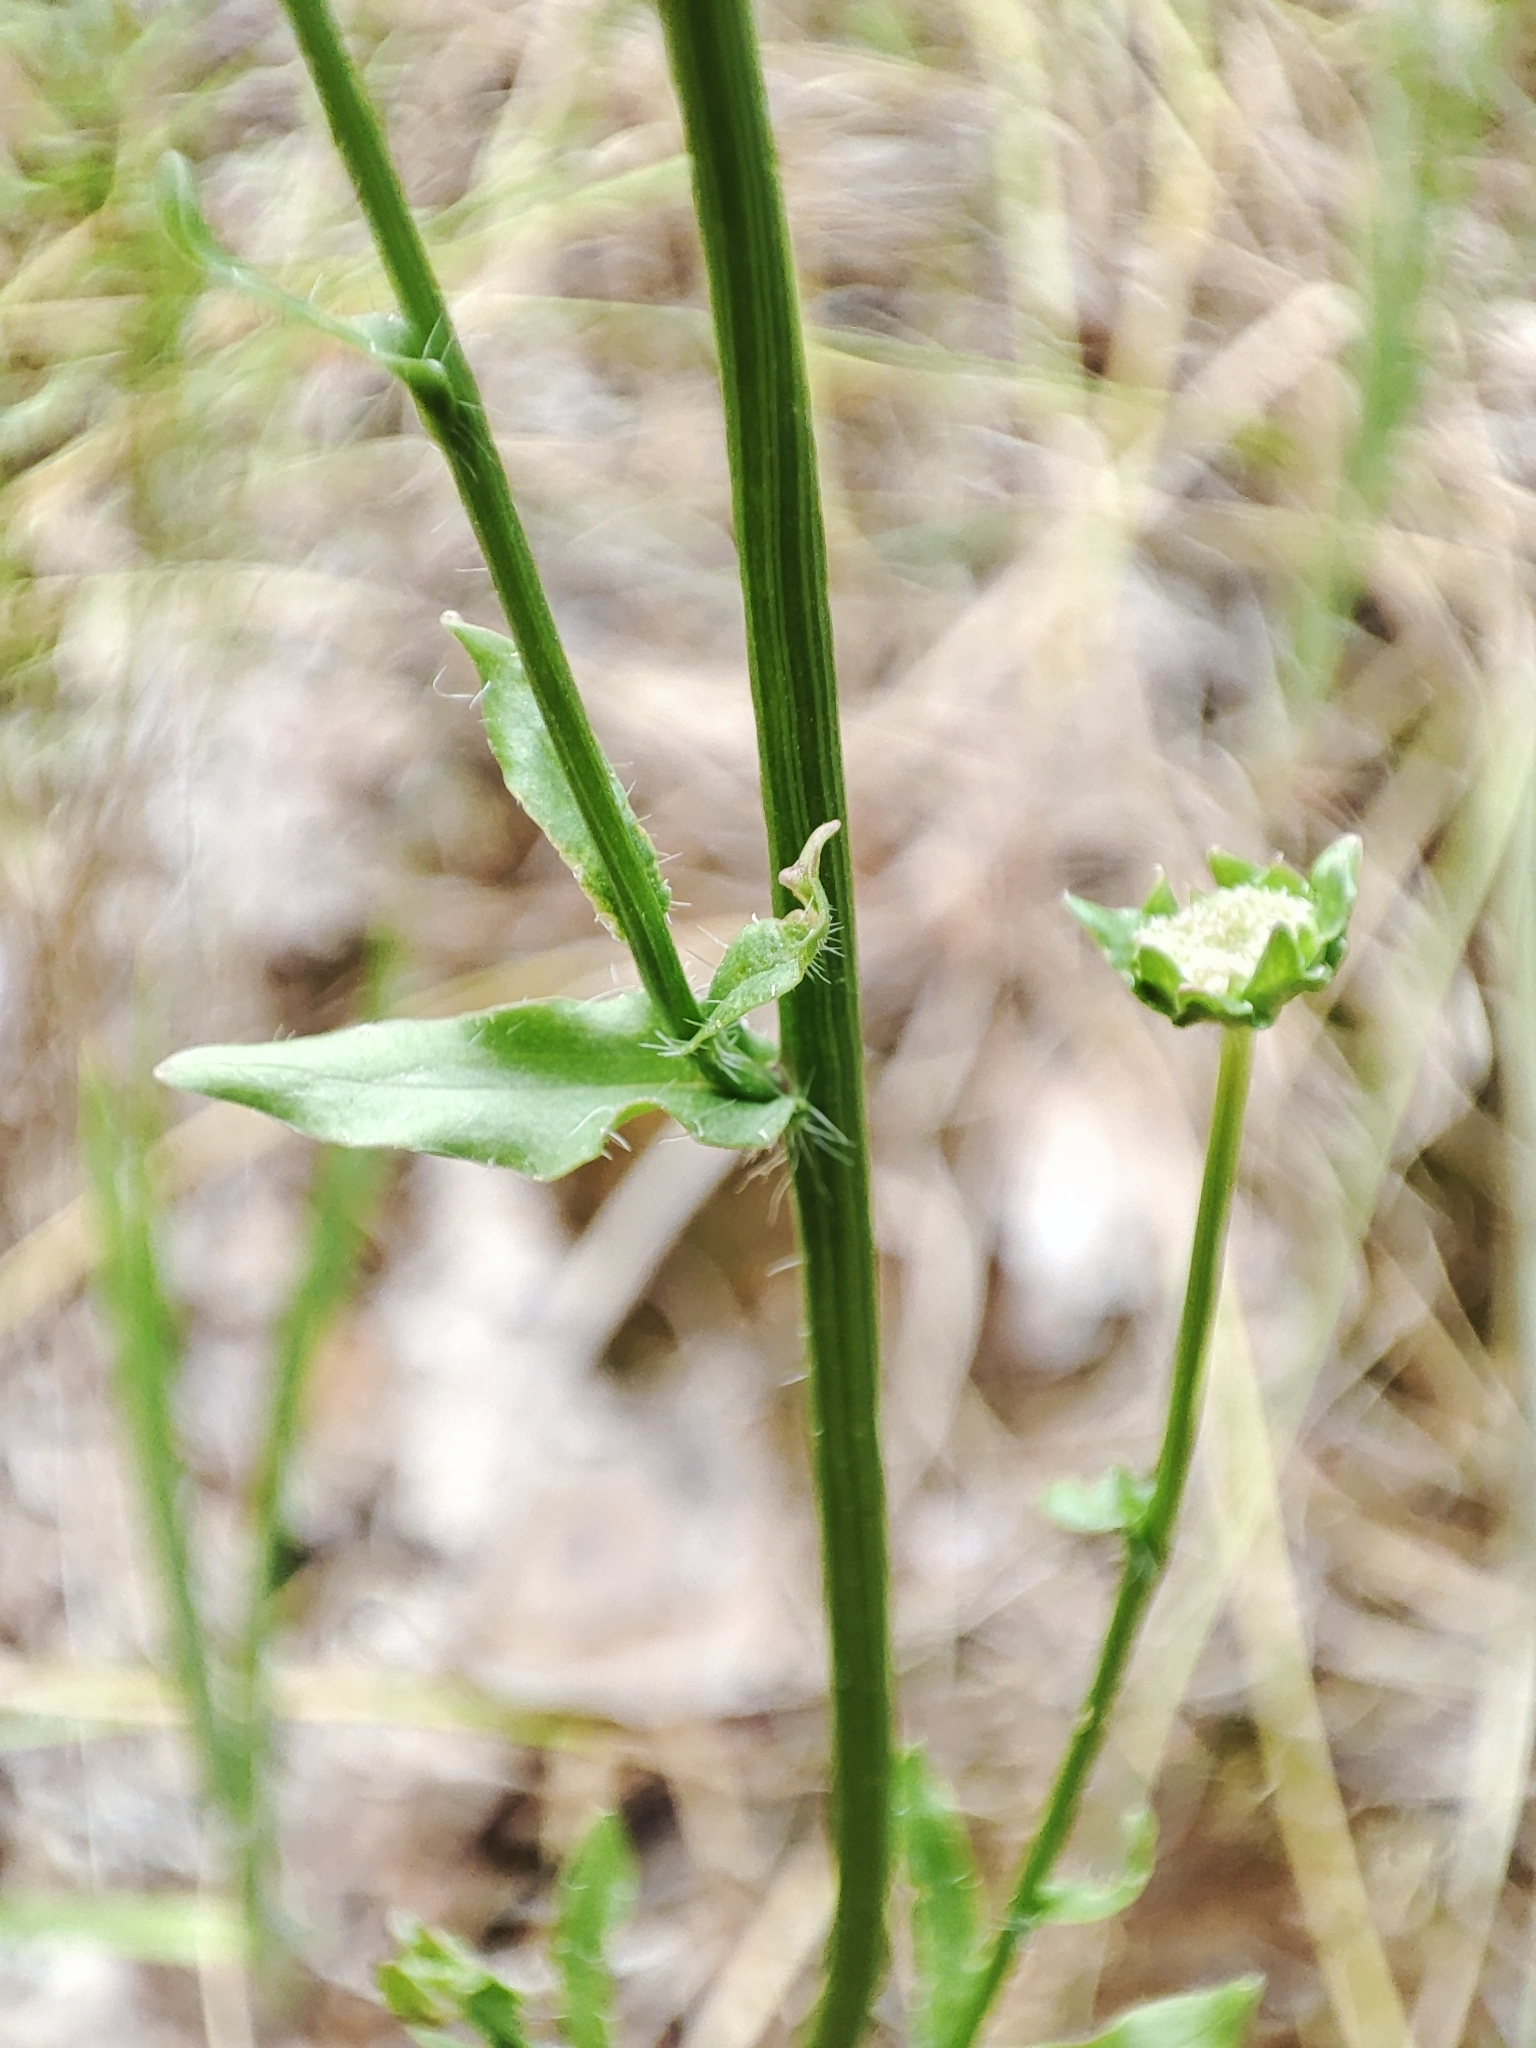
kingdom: Plantae
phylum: Tracheophyta
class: Magnoliopsida
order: Asterales
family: Campanulaceae
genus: Jasione
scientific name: Jasione montana
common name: Sheep's-bit
